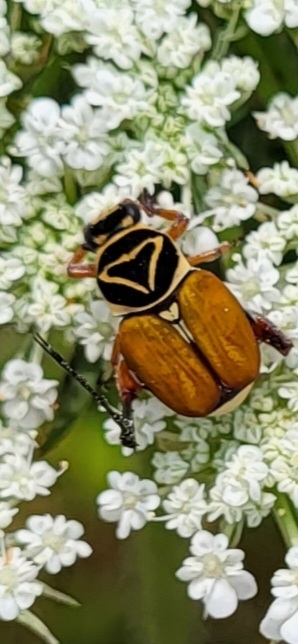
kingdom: Animalia
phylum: Arthropoda
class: Insecta
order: Coleoptera
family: Scarabaeidae
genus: Trigonopeltastes
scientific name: Trigonopeltastes delta
